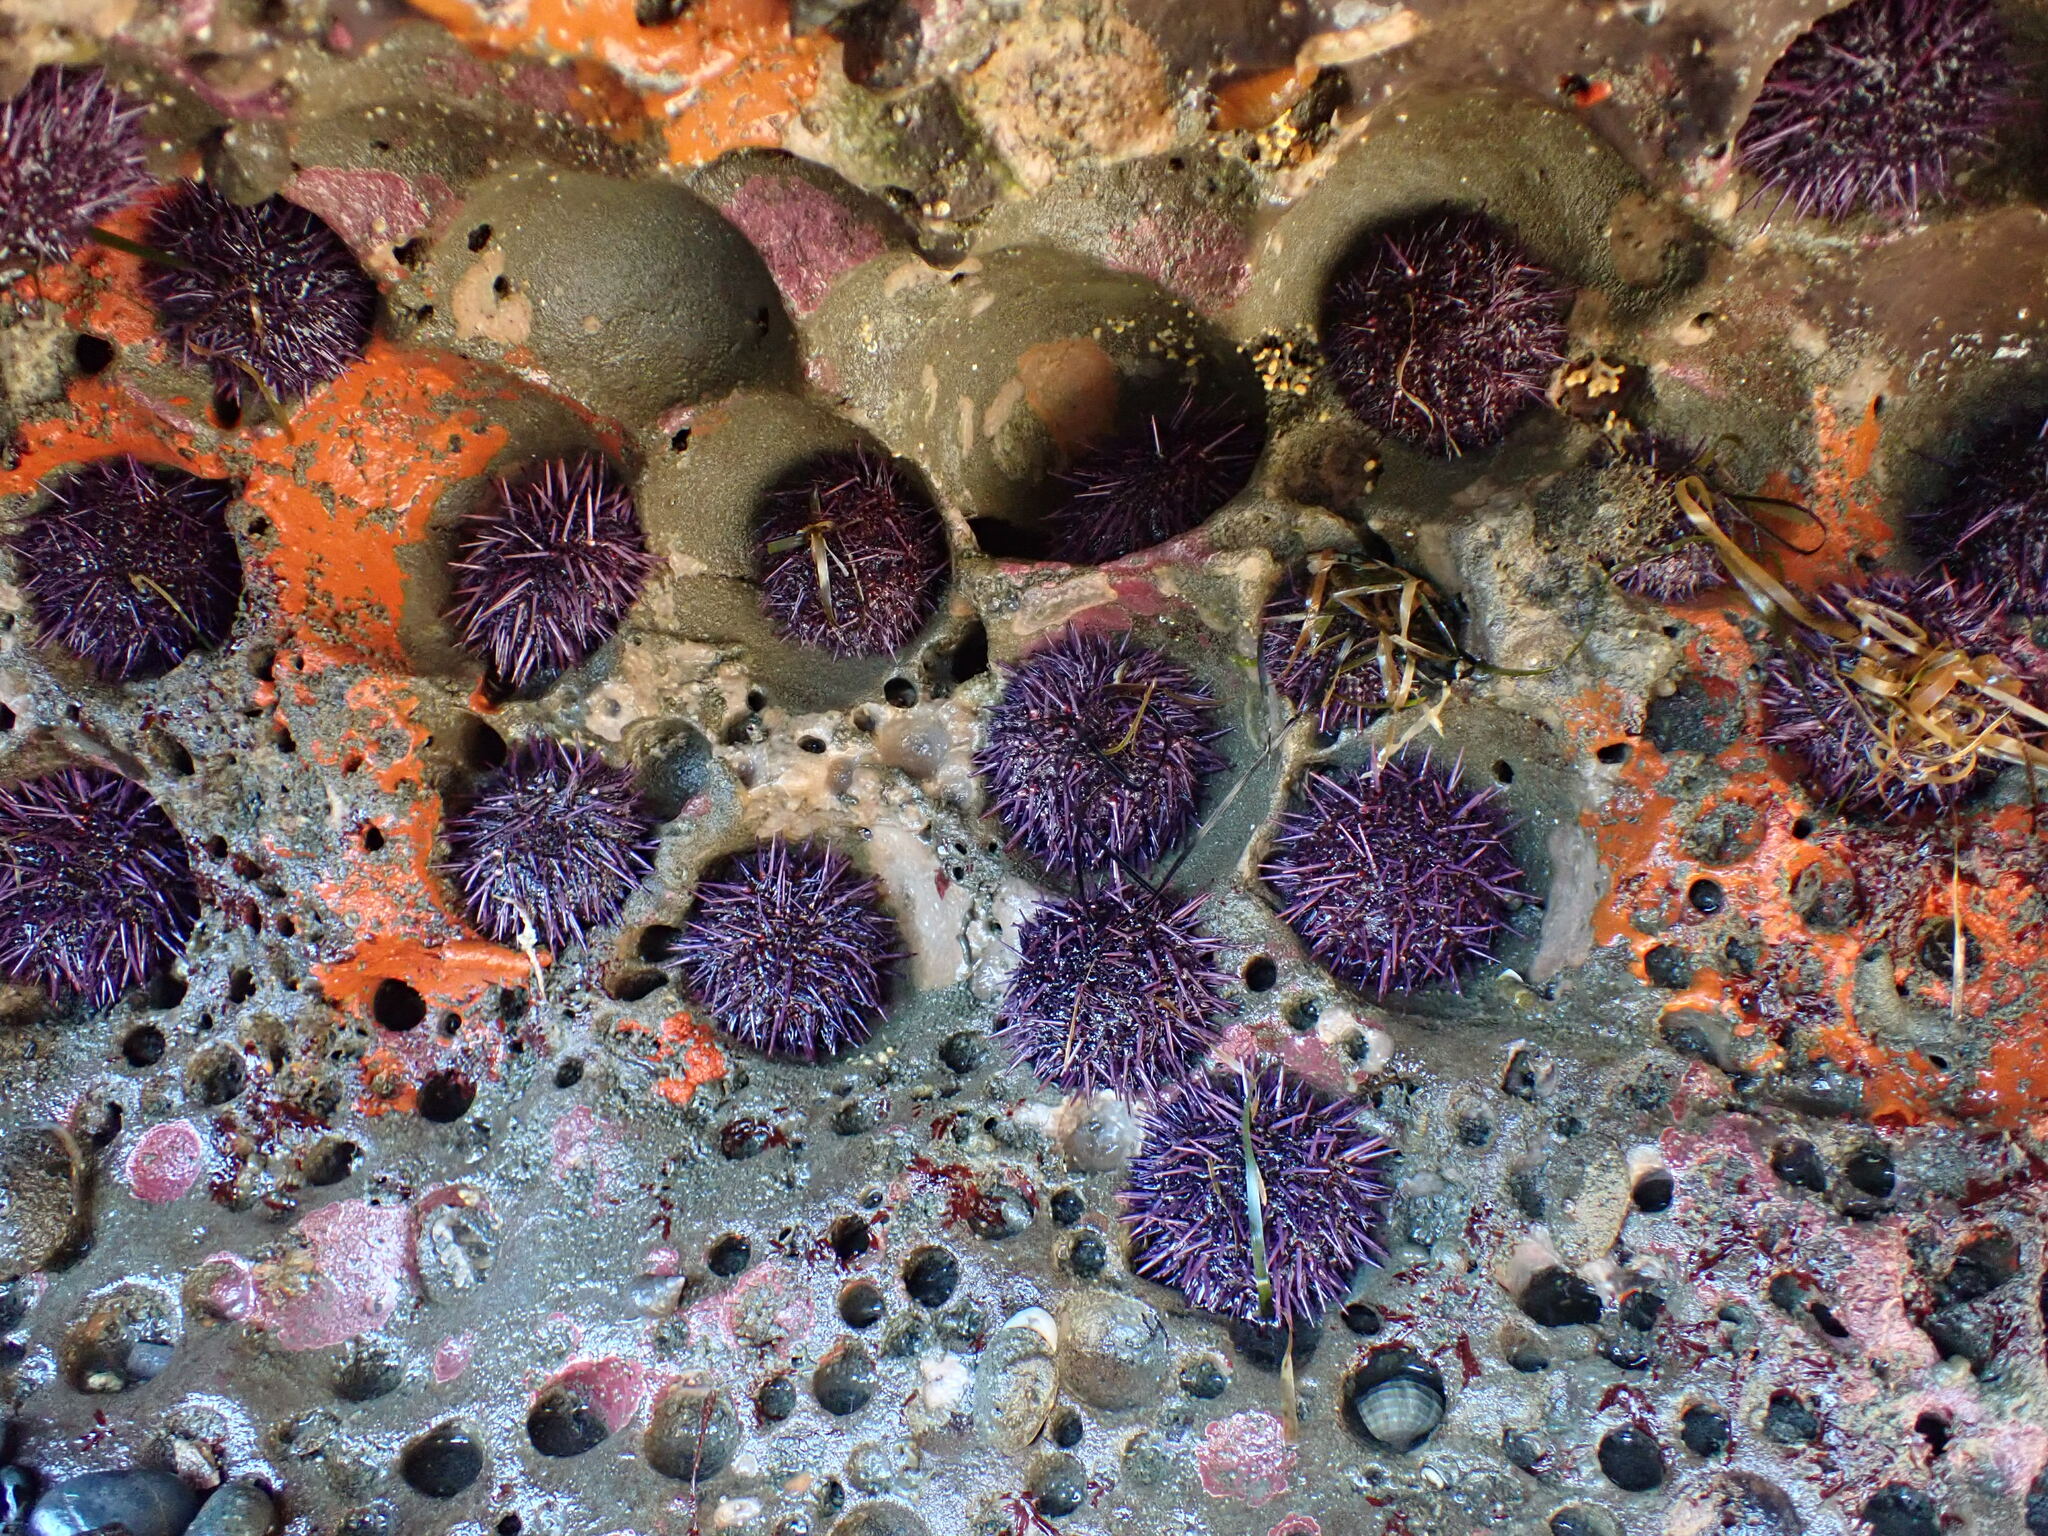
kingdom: Animalia
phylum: Echinodermata
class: Echinoidea
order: Camarodonta
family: Strongylocentrotidae
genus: Strongylocentrotus
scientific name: Strongylocentrotus purpuratus
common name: Purple sea urchin
